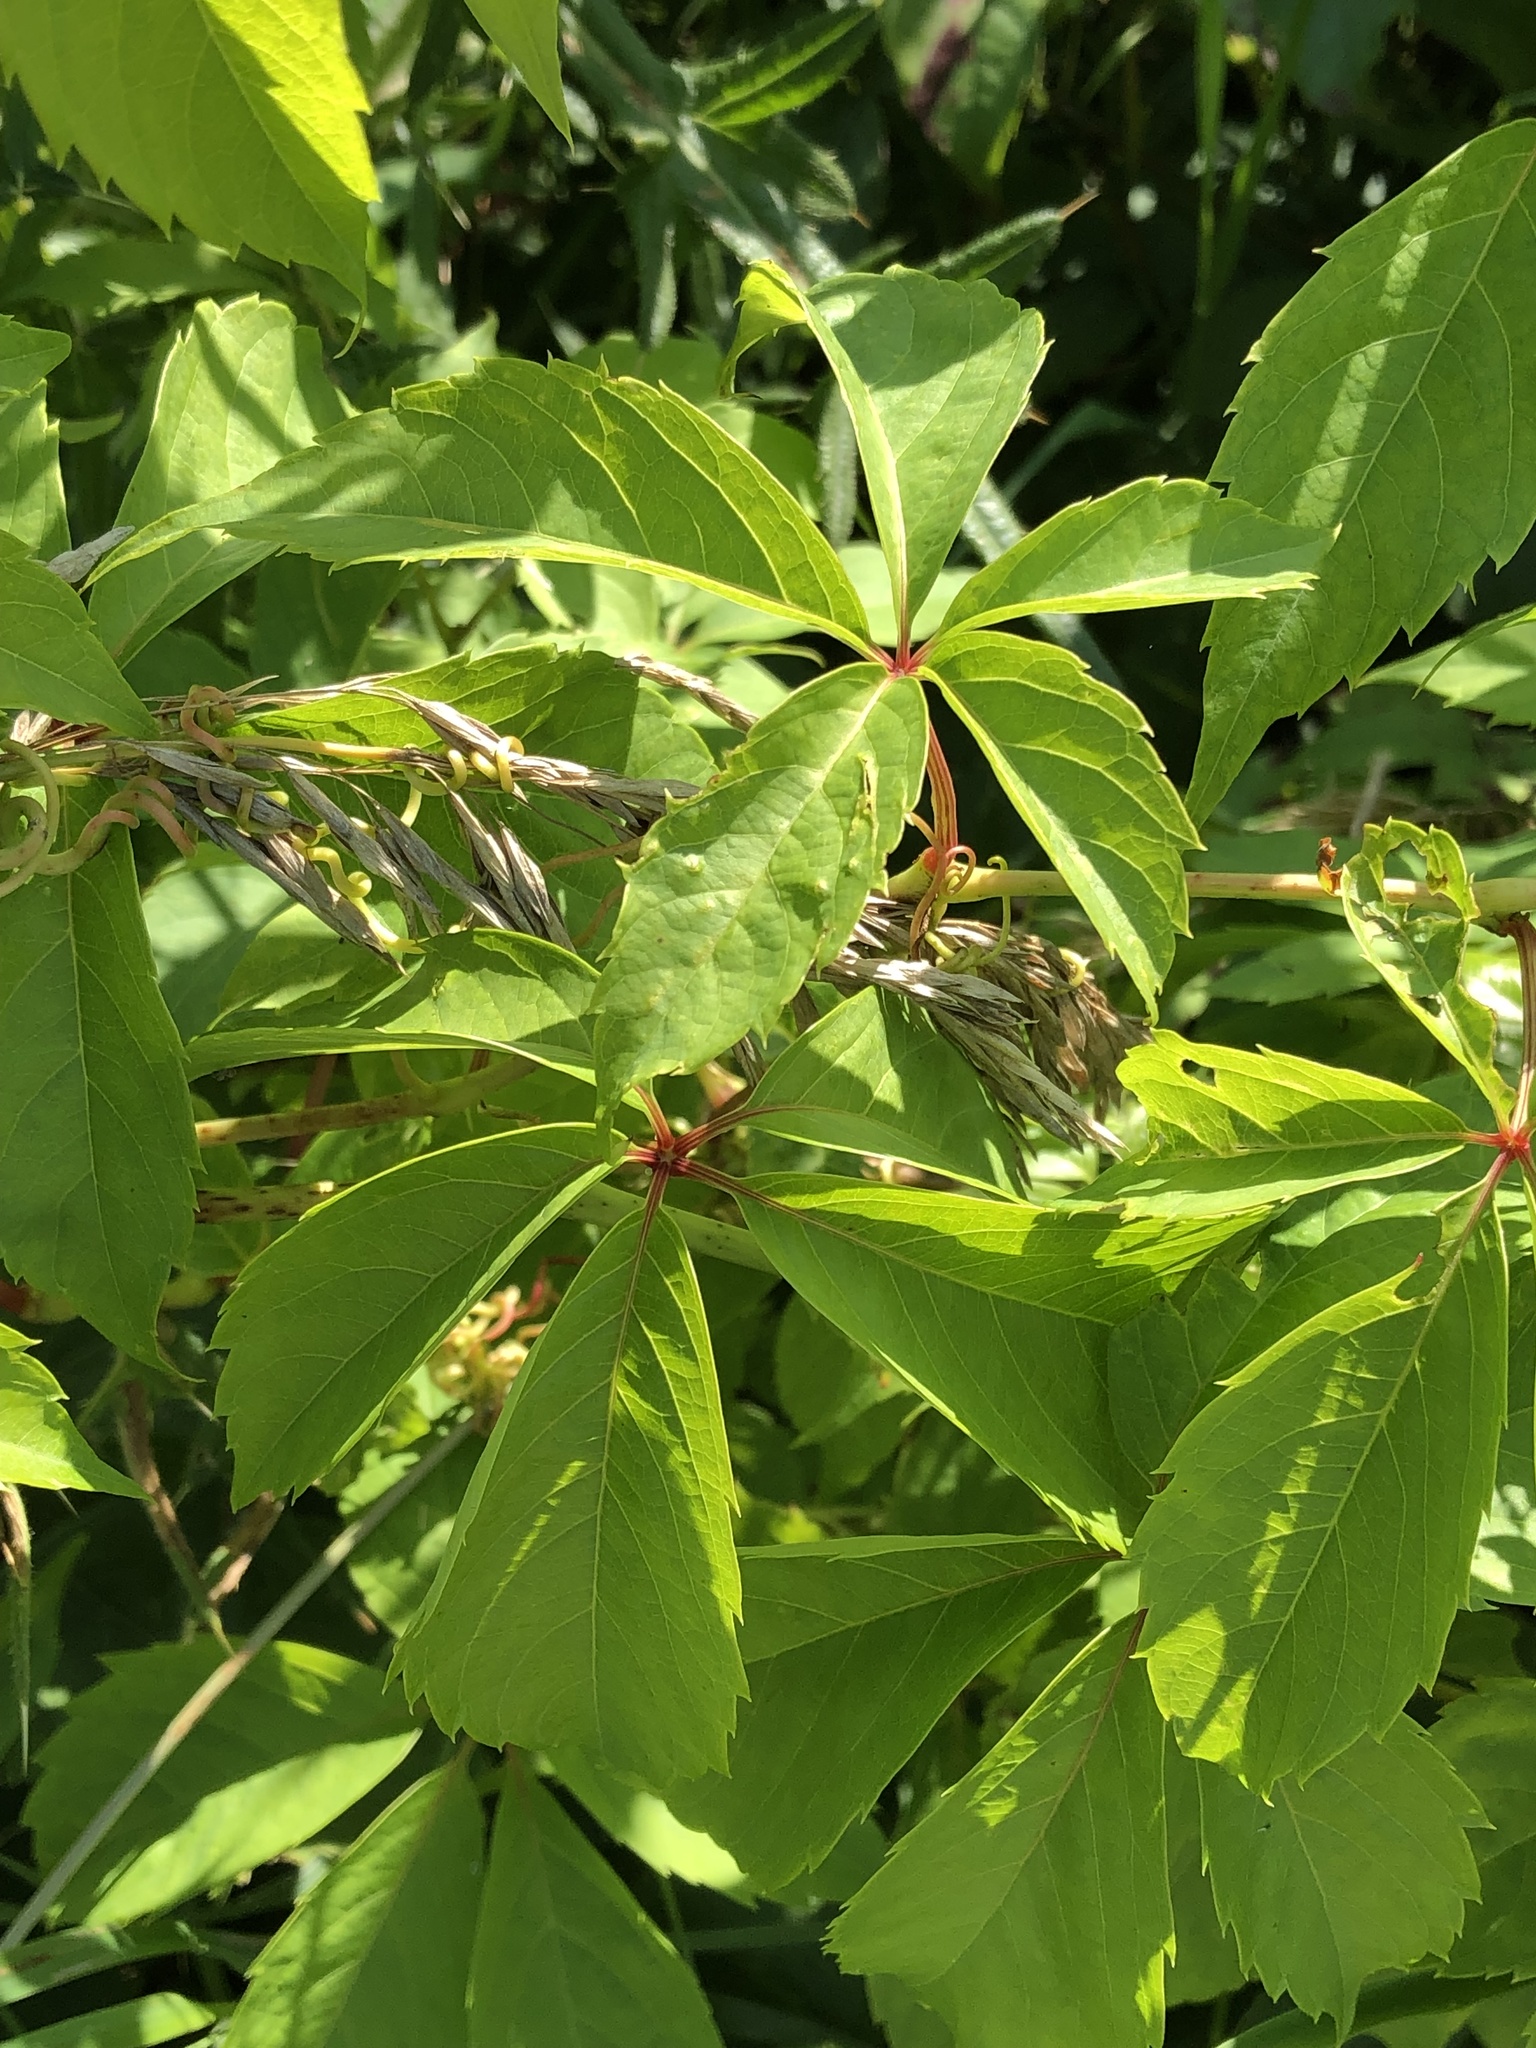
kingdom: Plantae
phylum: Tracheophyta
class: Magnoliopsida
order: Vitales
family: Vitaceae
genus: Parthenocissus
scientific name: Parthenocissus inserta
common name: False virginia-creeper
